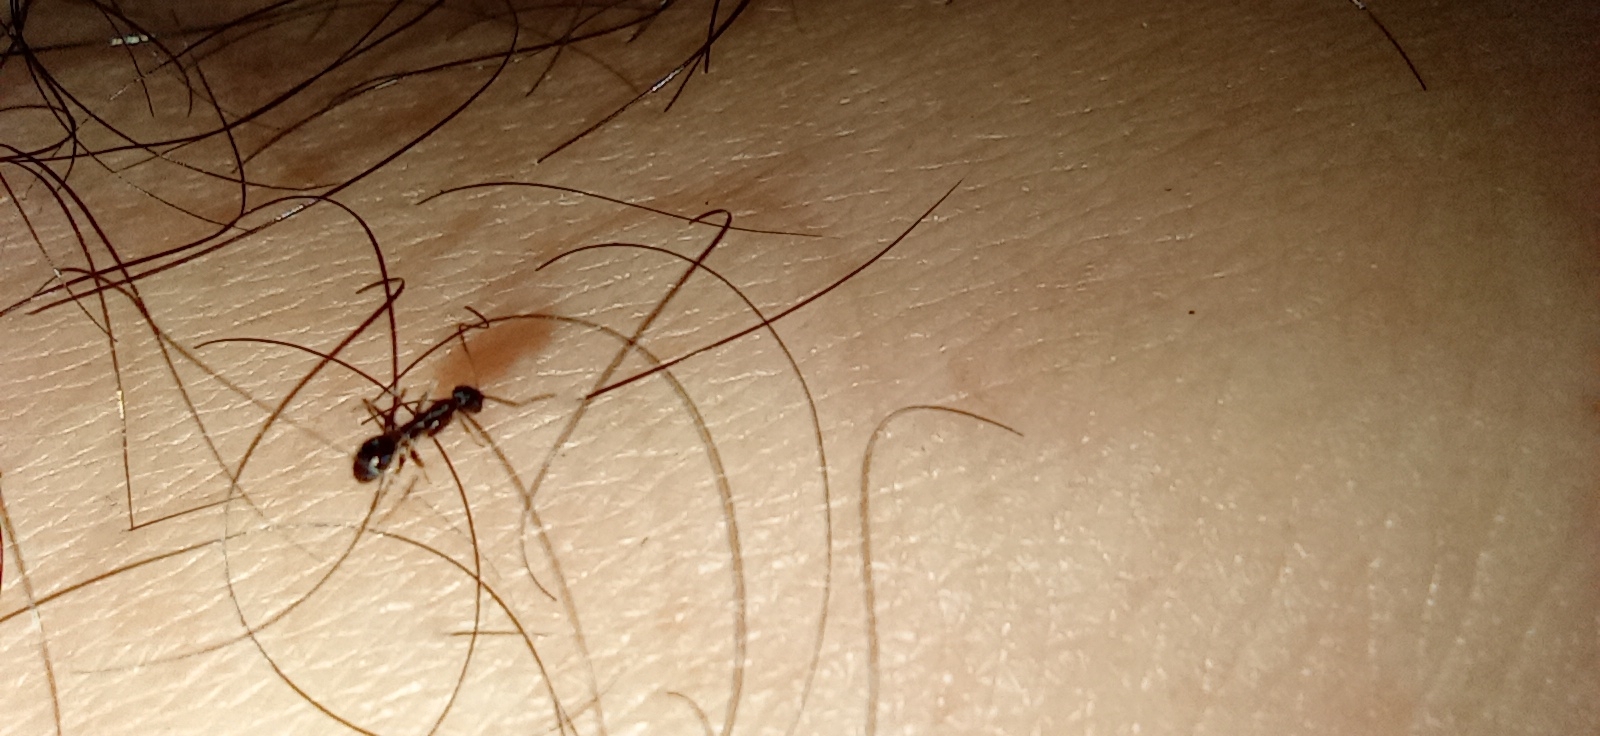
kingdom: Animalia
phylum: Arthropoda
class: Insecta
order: Hymenoptera
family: Formicidae
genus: Paratrechina
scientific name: Paratrechina longicornis
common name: Longhorned crazy ant
